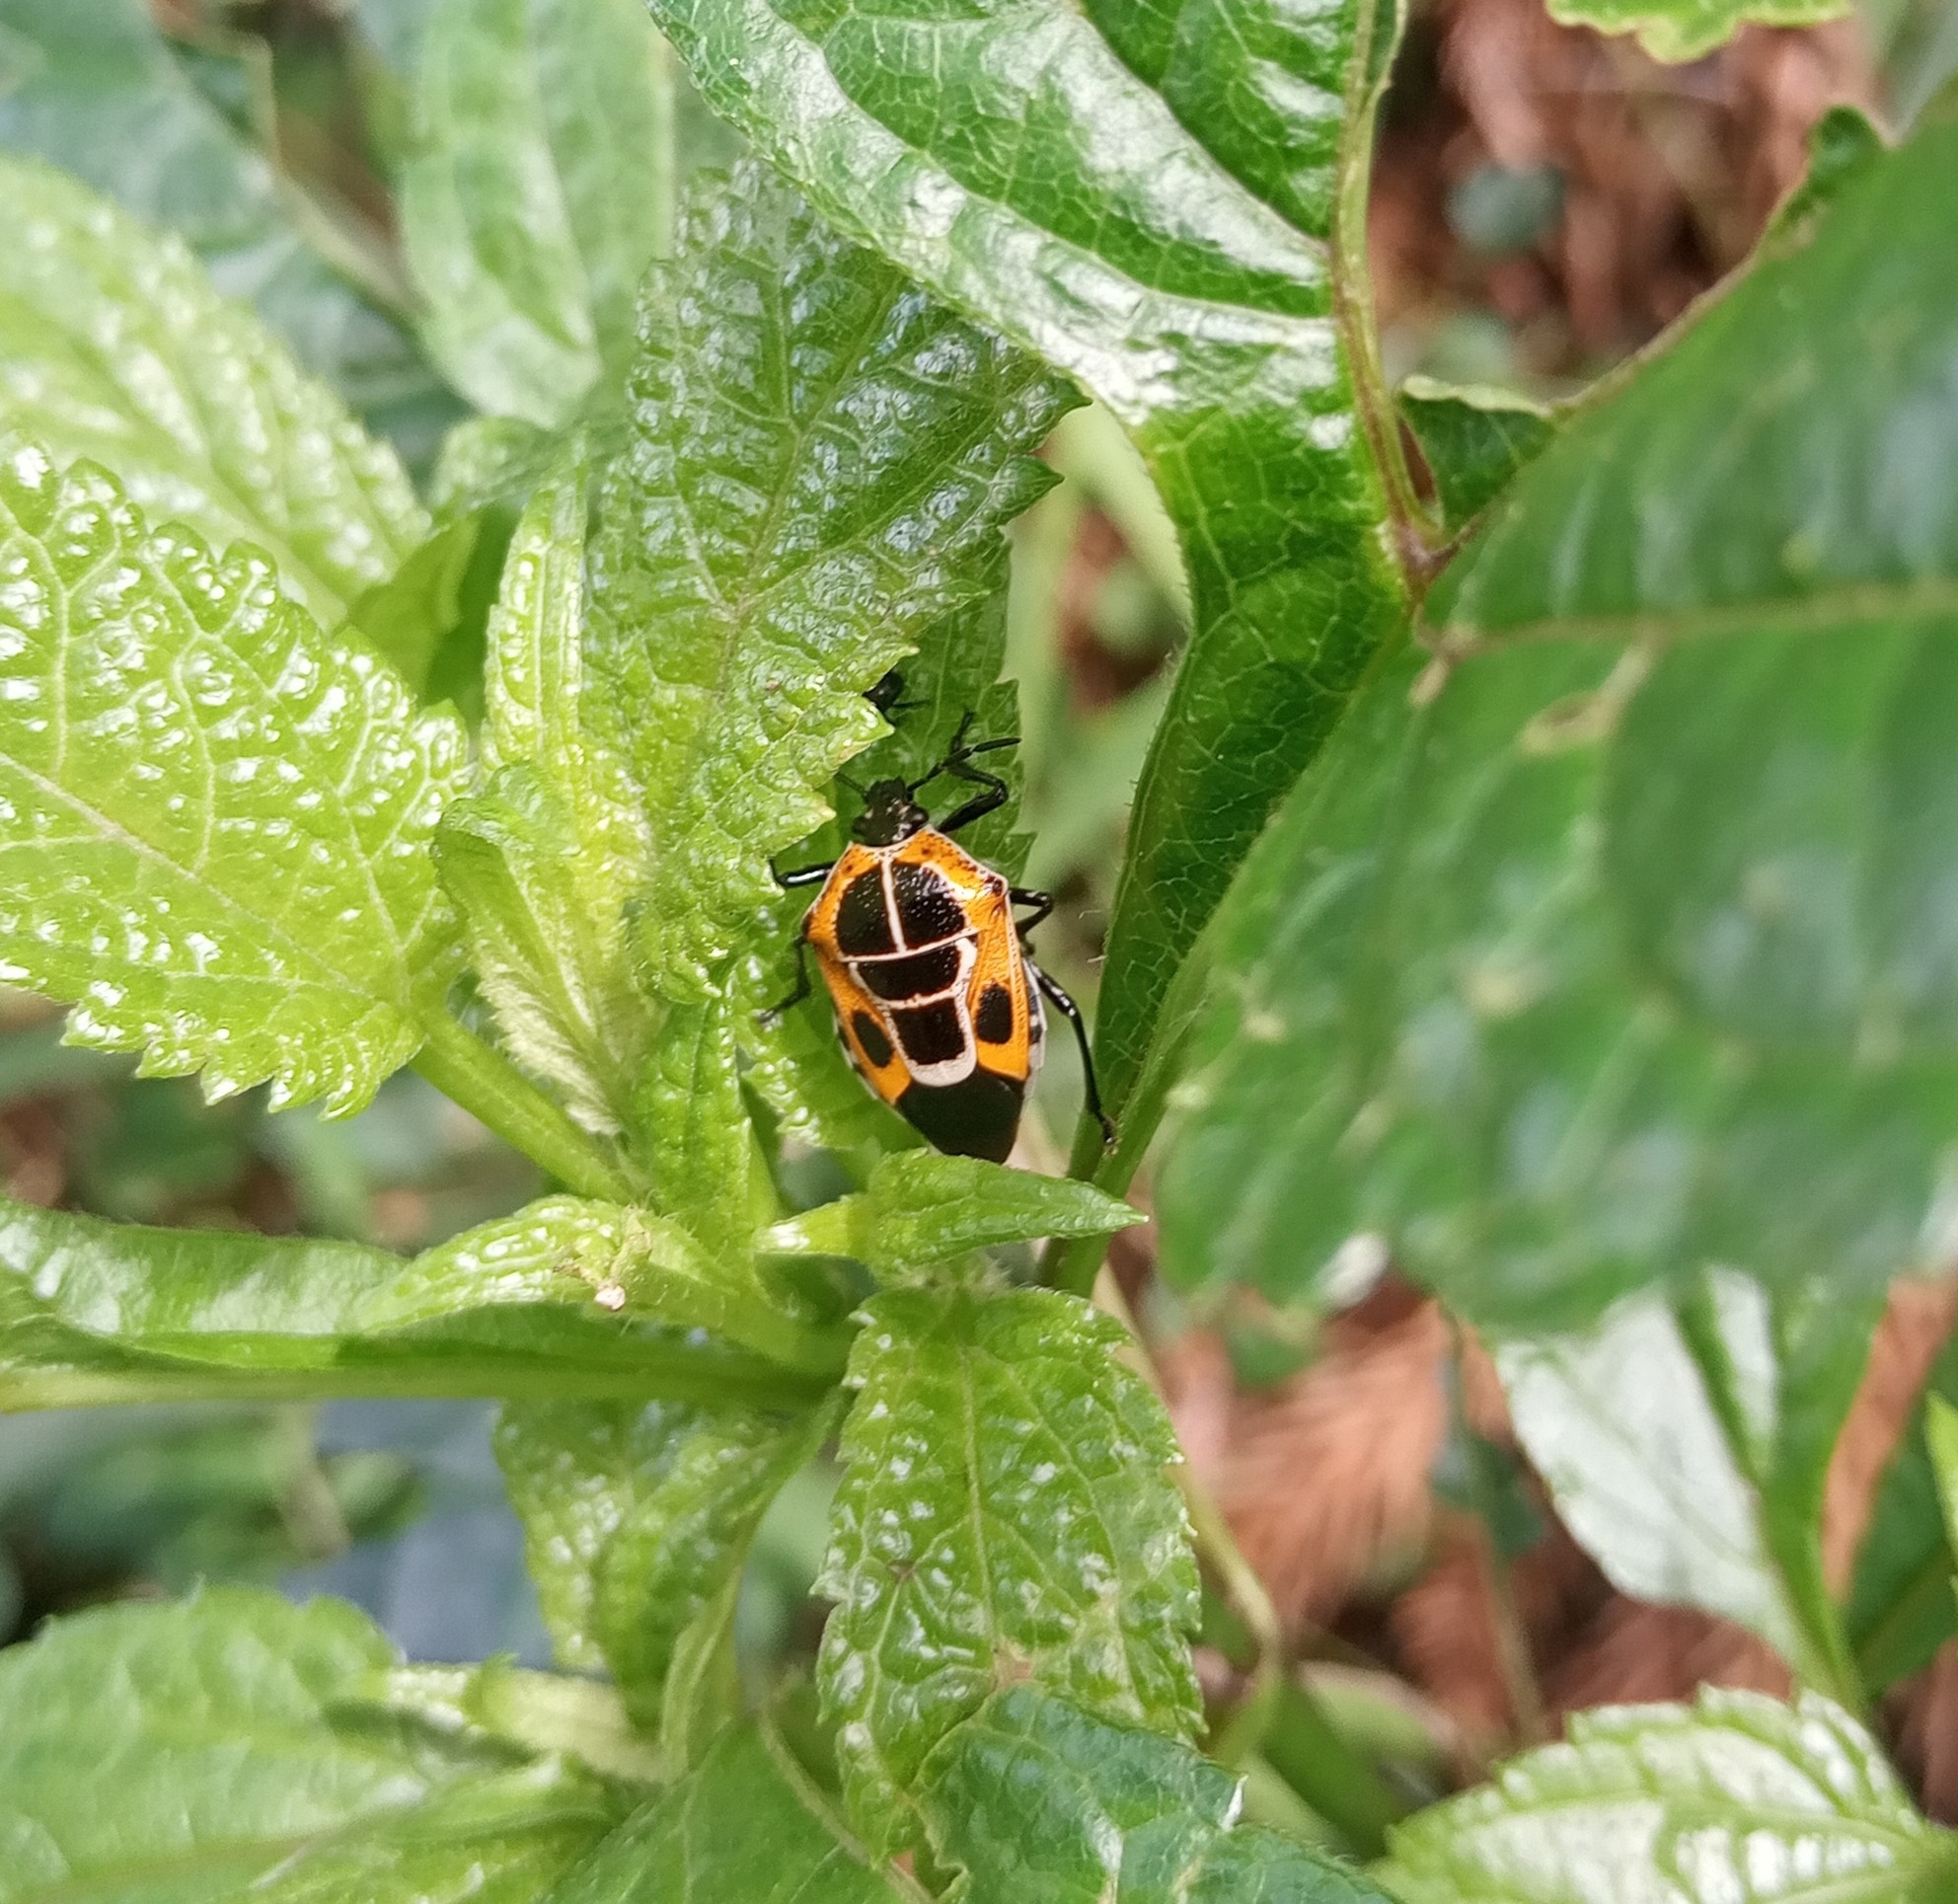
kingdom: Animalia
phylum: Arthropoda
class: Insecta
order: Hemiptera
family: Pentatomidae
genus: Oplomus
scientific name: Oplomus catena
